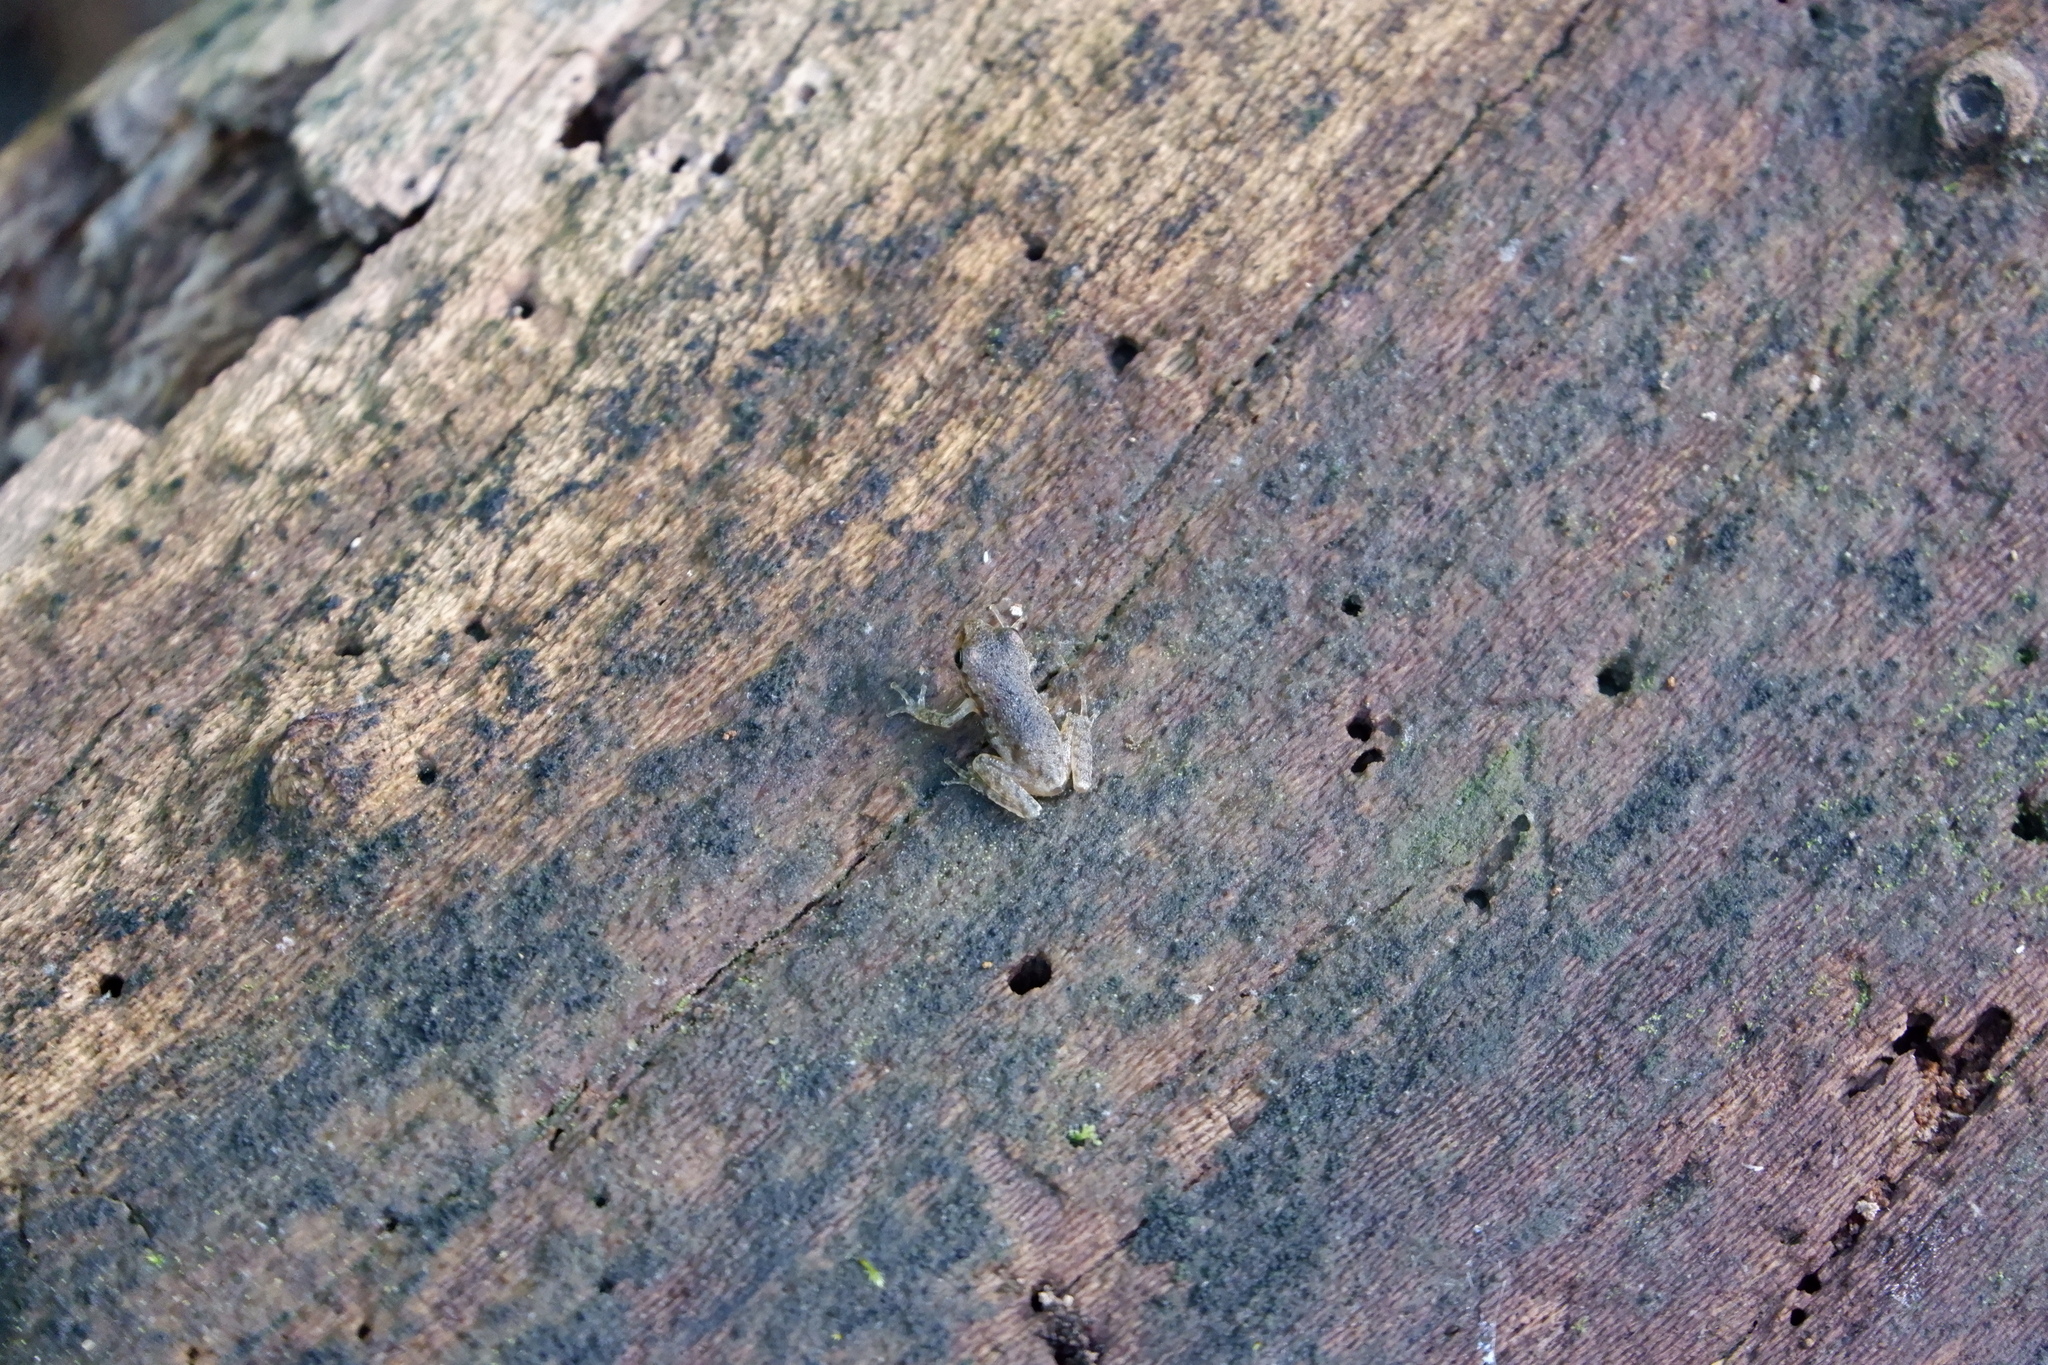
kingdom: Animalia
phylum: Chordata
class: Amphibia
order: Anura
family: Hylidae
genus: Pseudacris
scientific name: Pseudacris crucifer
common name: Spring peeper
